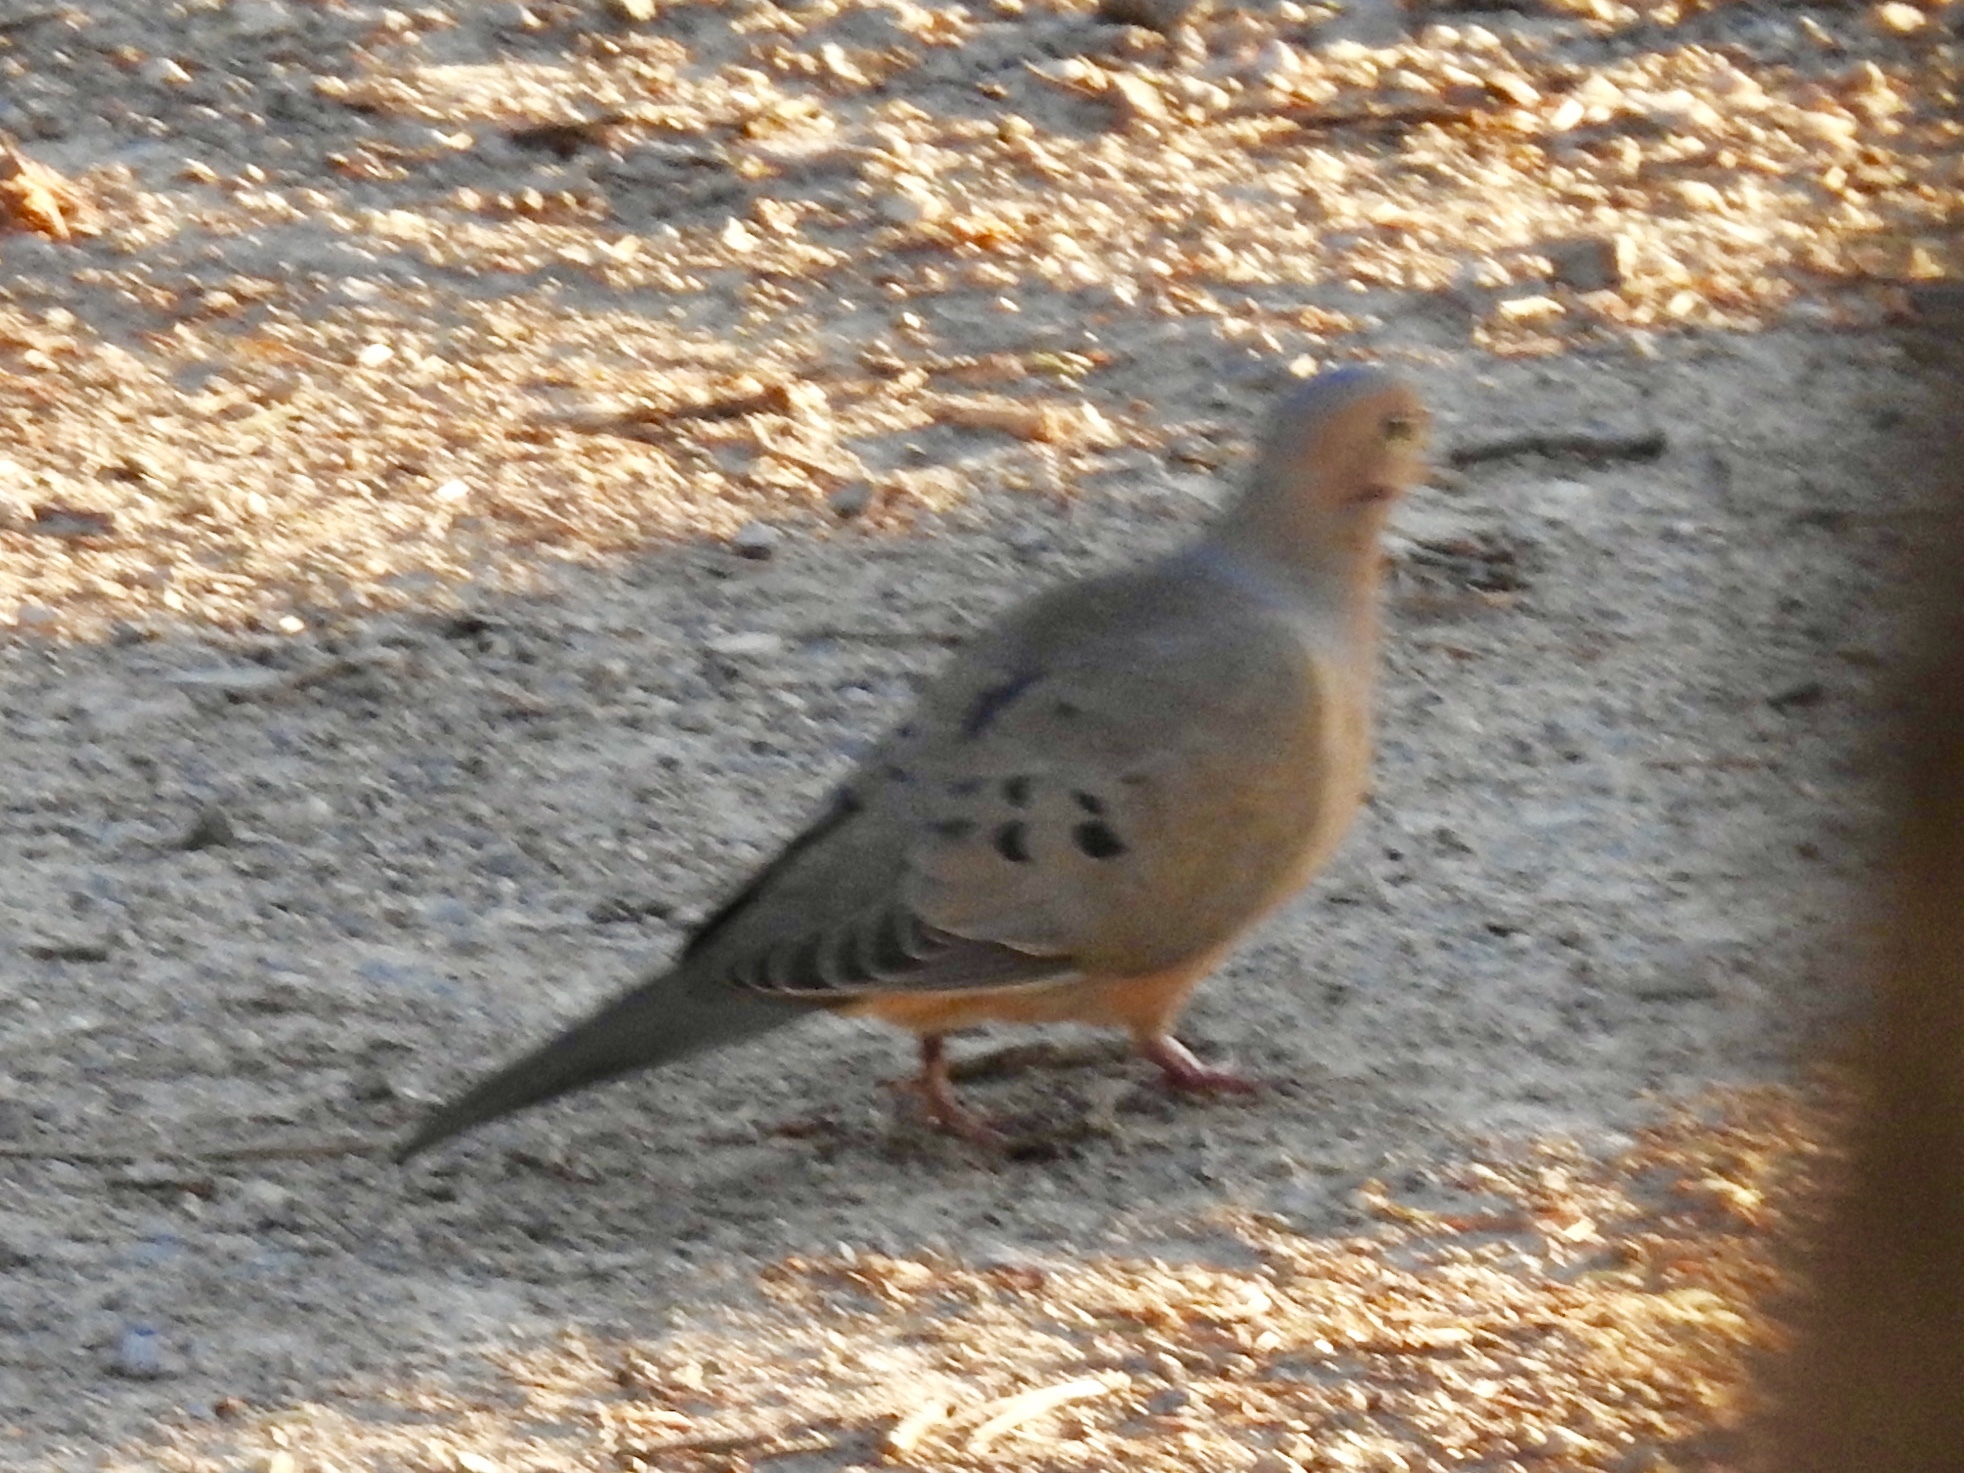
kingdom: Animalia
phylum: Chordata
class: Aves
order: Columbiformes
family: Columbidae
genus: Zenaida
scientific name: Zenaida macroura
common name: Mourning dove
